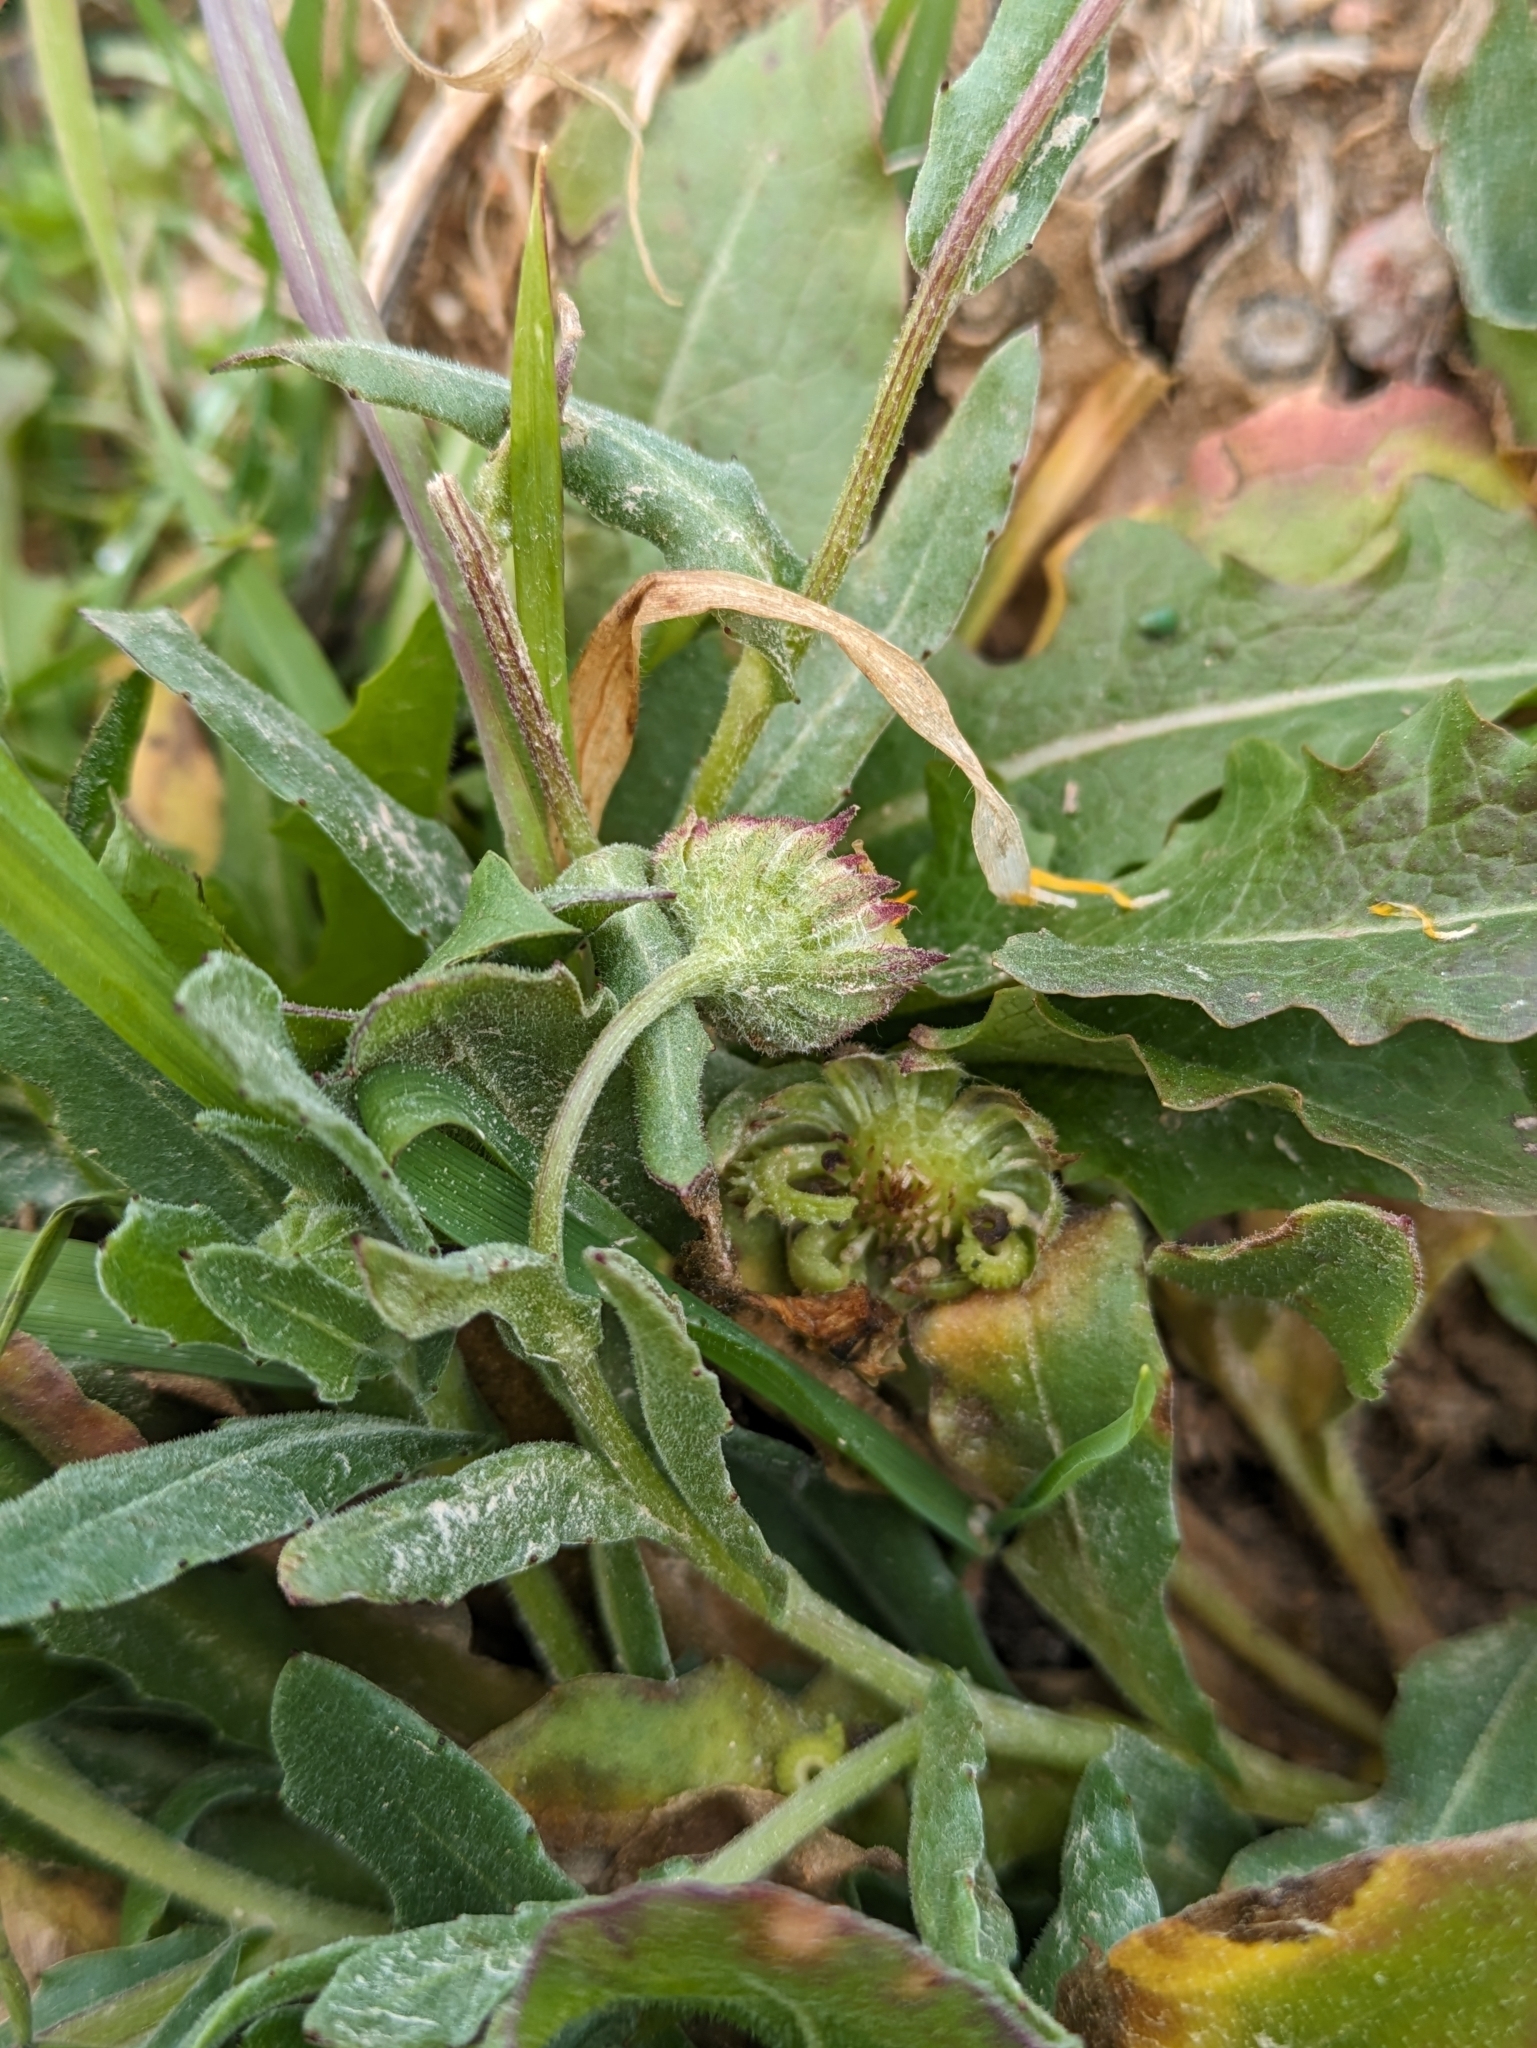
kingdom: Plantae
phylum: Tracheophyta
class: Magnoliopsida
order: Asterales
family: Asteraceae
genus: Calendula
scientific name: Calendula arvensis
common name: Field marigold
